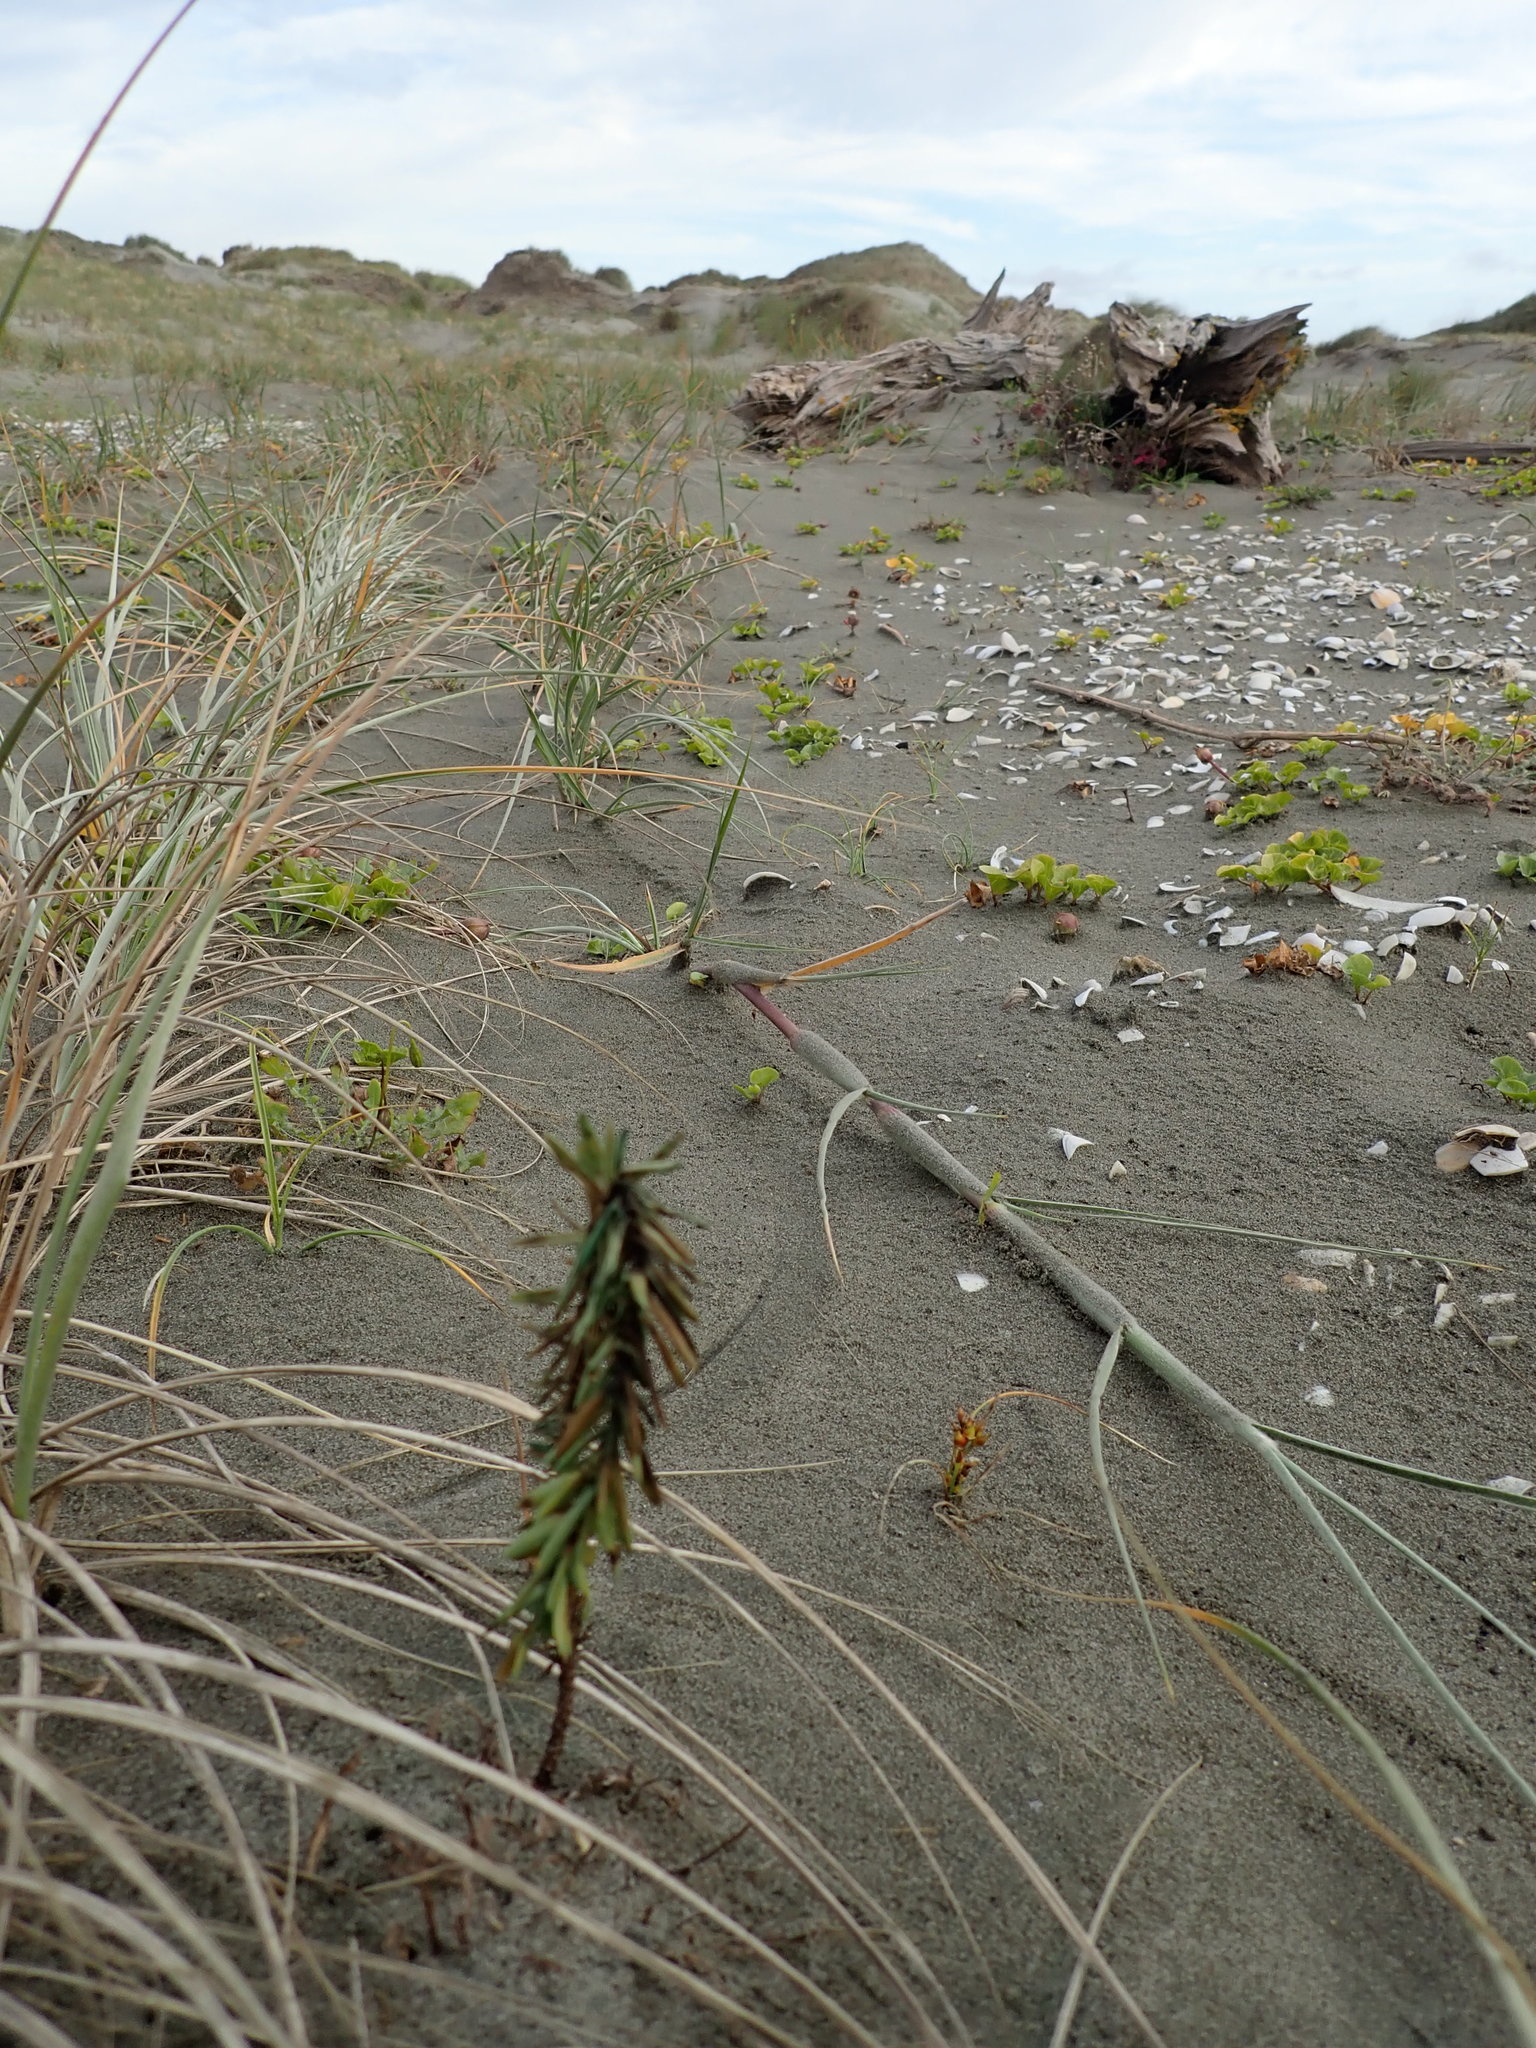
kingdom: Plantae
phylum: Tracheophyta
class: Magnoliopsida
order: Malpighiales
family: Euphorbiaceae
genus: Euphorbia
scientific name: Euphorbia paralias
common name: Sea spurge
